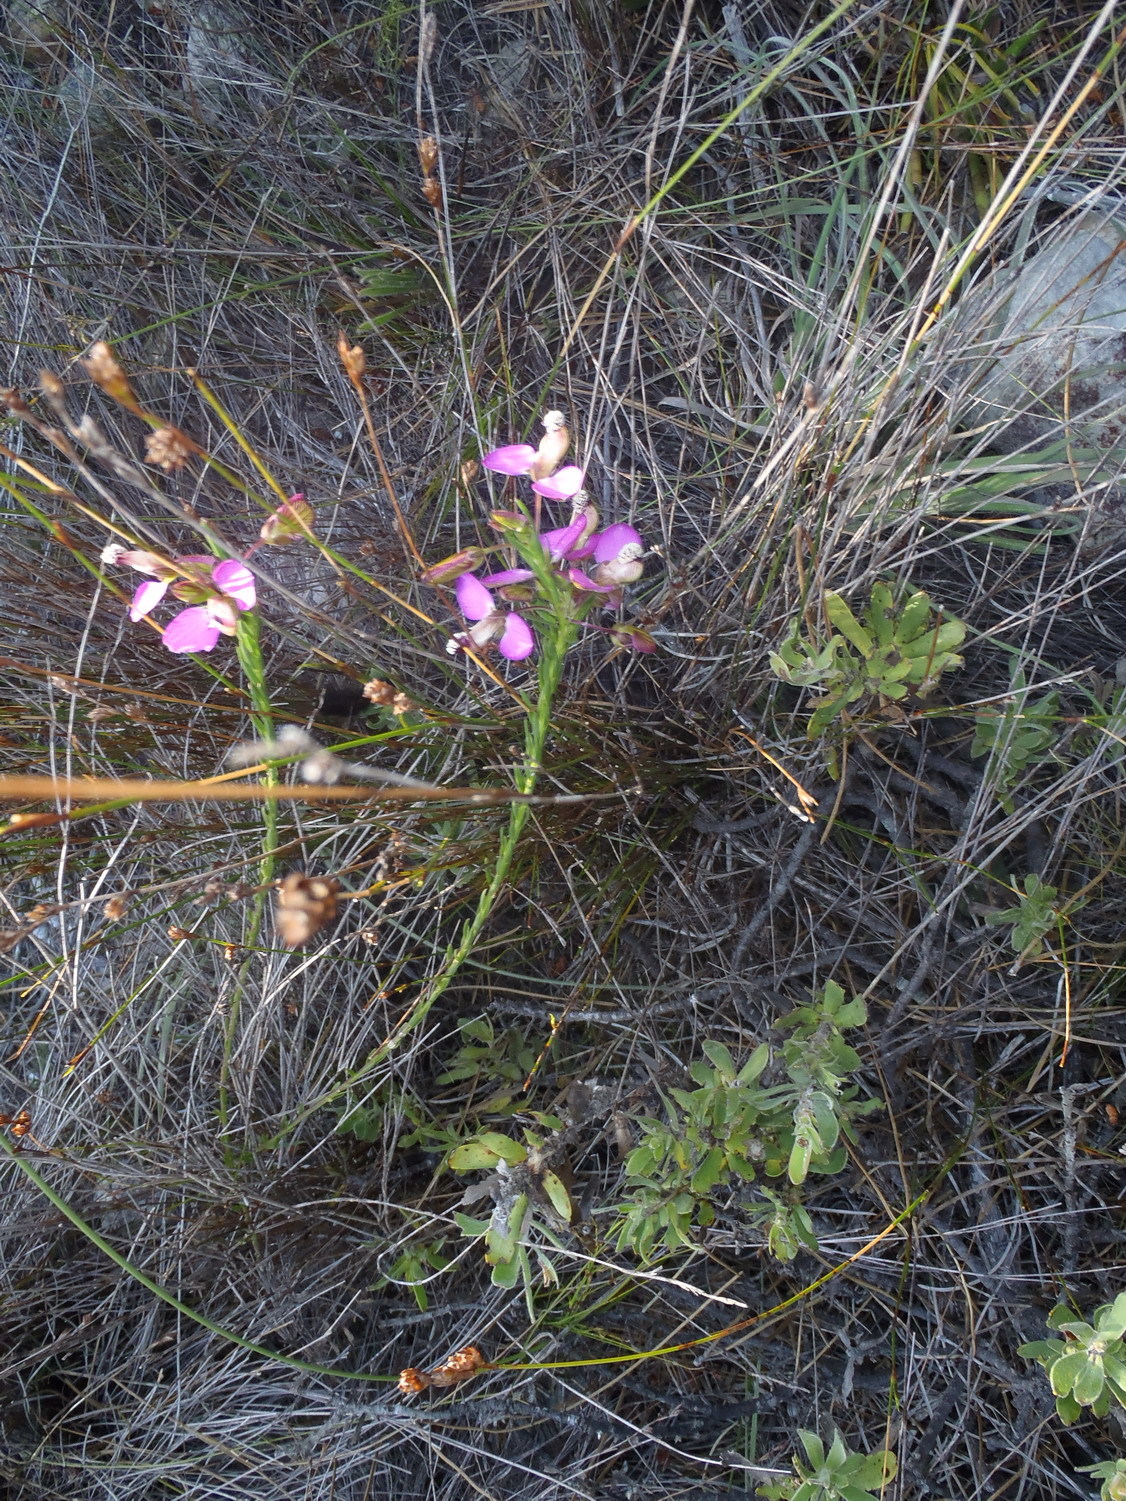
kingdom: Plantae
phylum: Tracheophyta
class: Magnoliopsida
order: Fabales
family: Polygalaceae
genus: Polygala
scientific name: Polygala bracteolata
